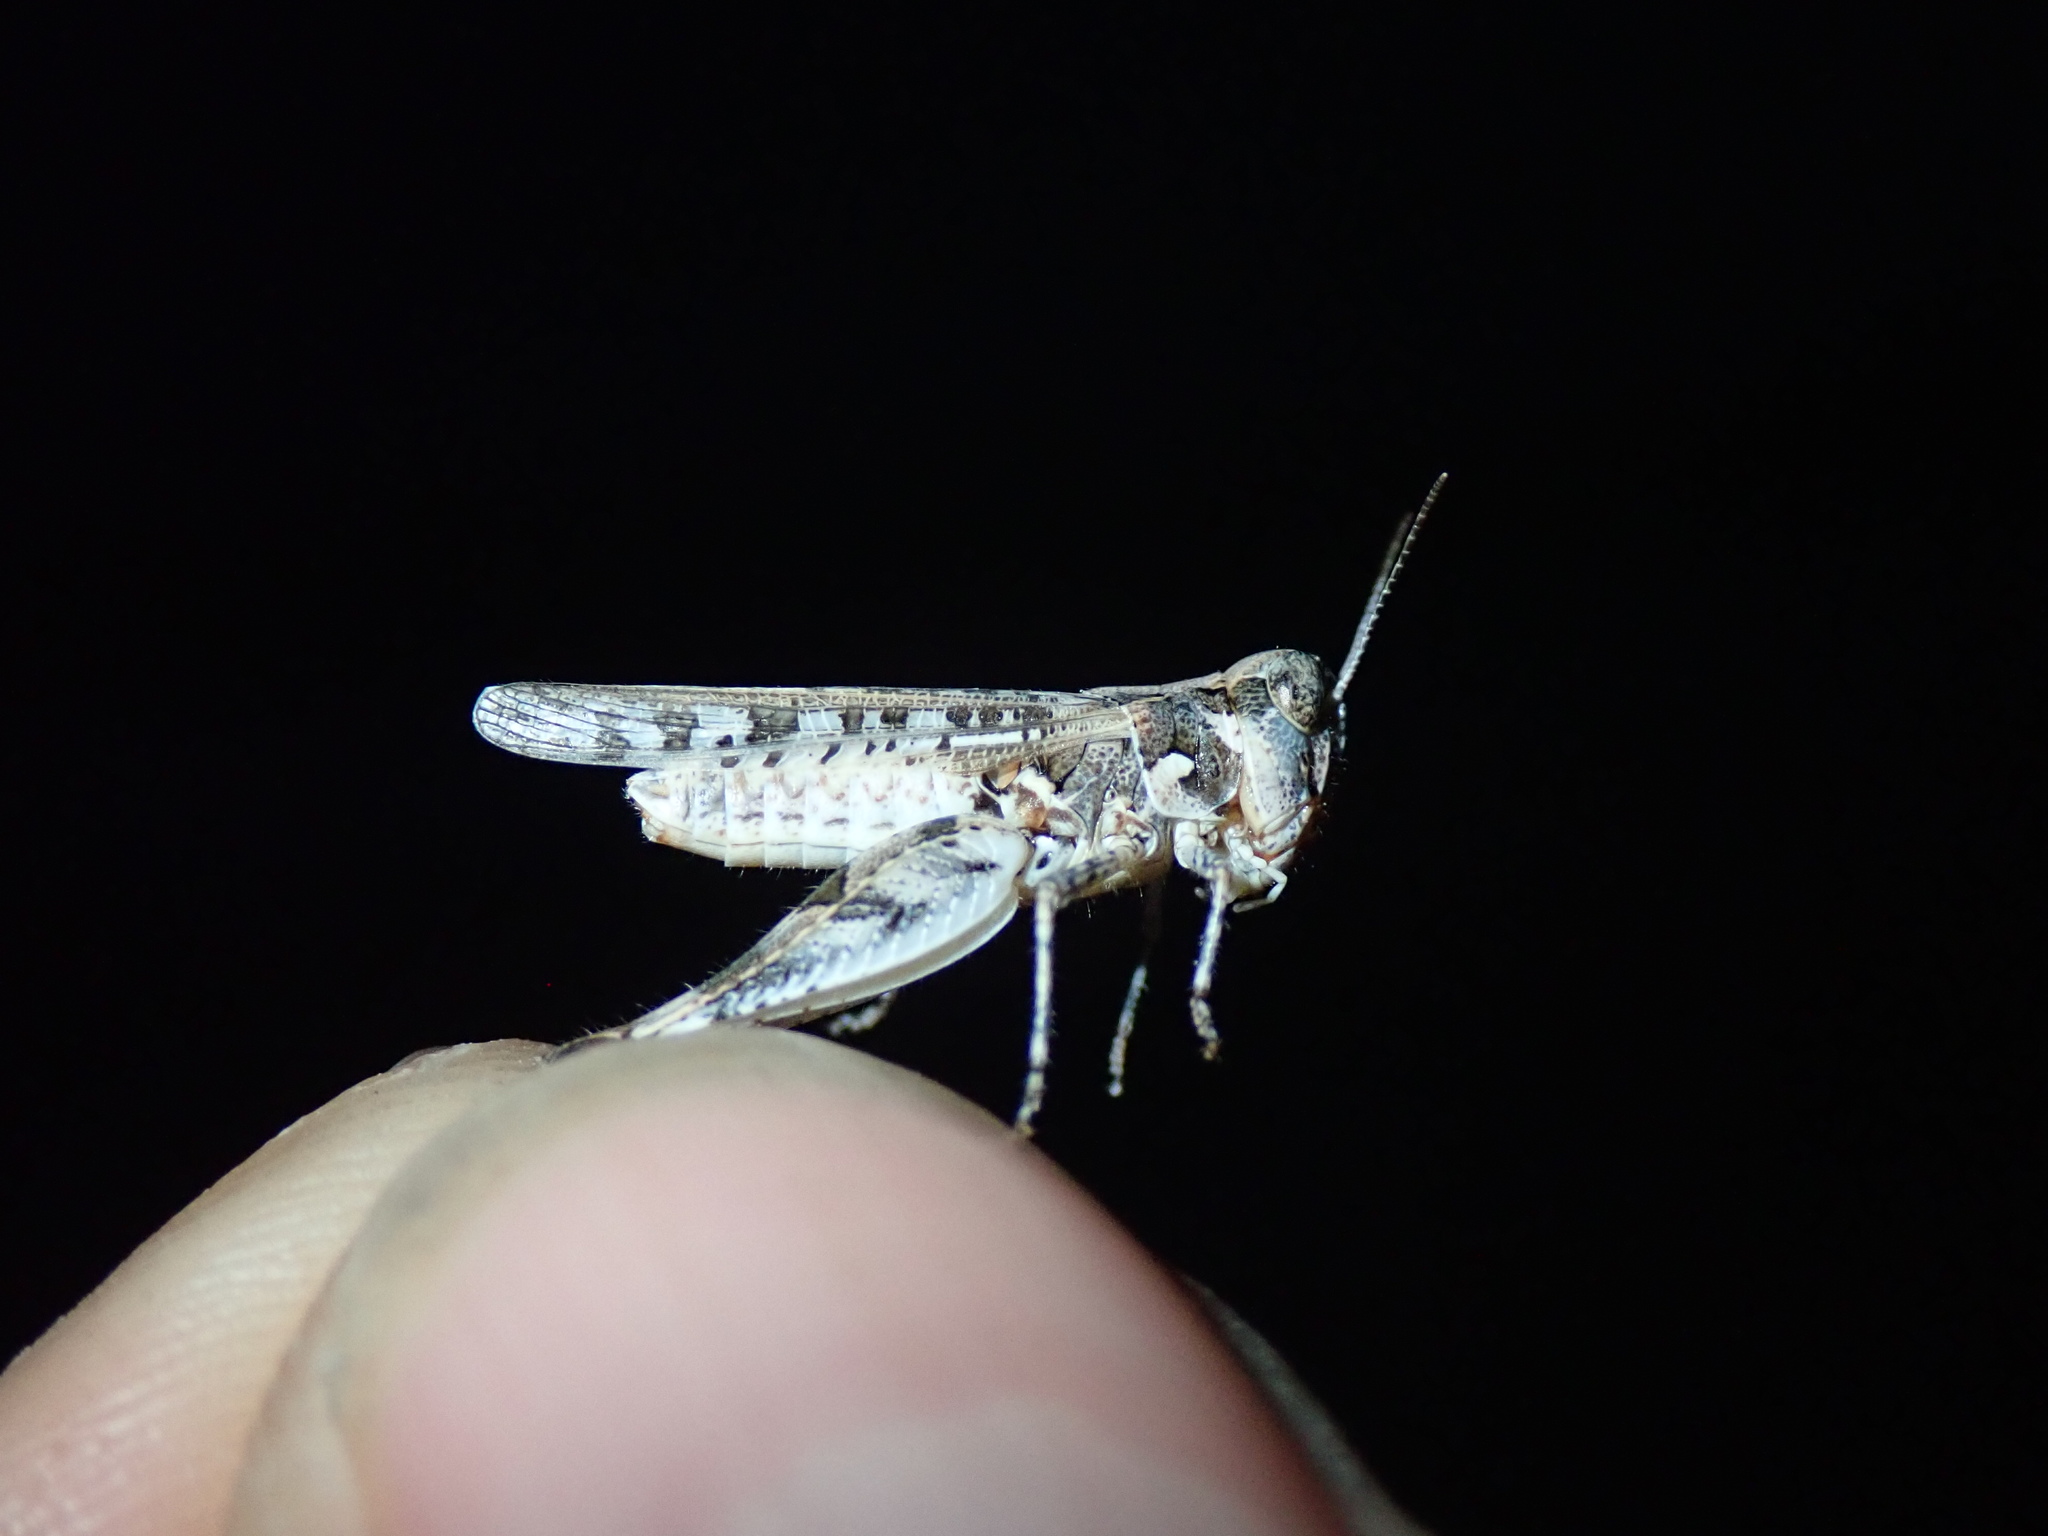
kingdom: Animalia
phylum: Arthropoda
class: Insecta
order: Orthoptera
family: Acrididae
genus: Dociostaurus
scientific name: Dociostaurus genei
